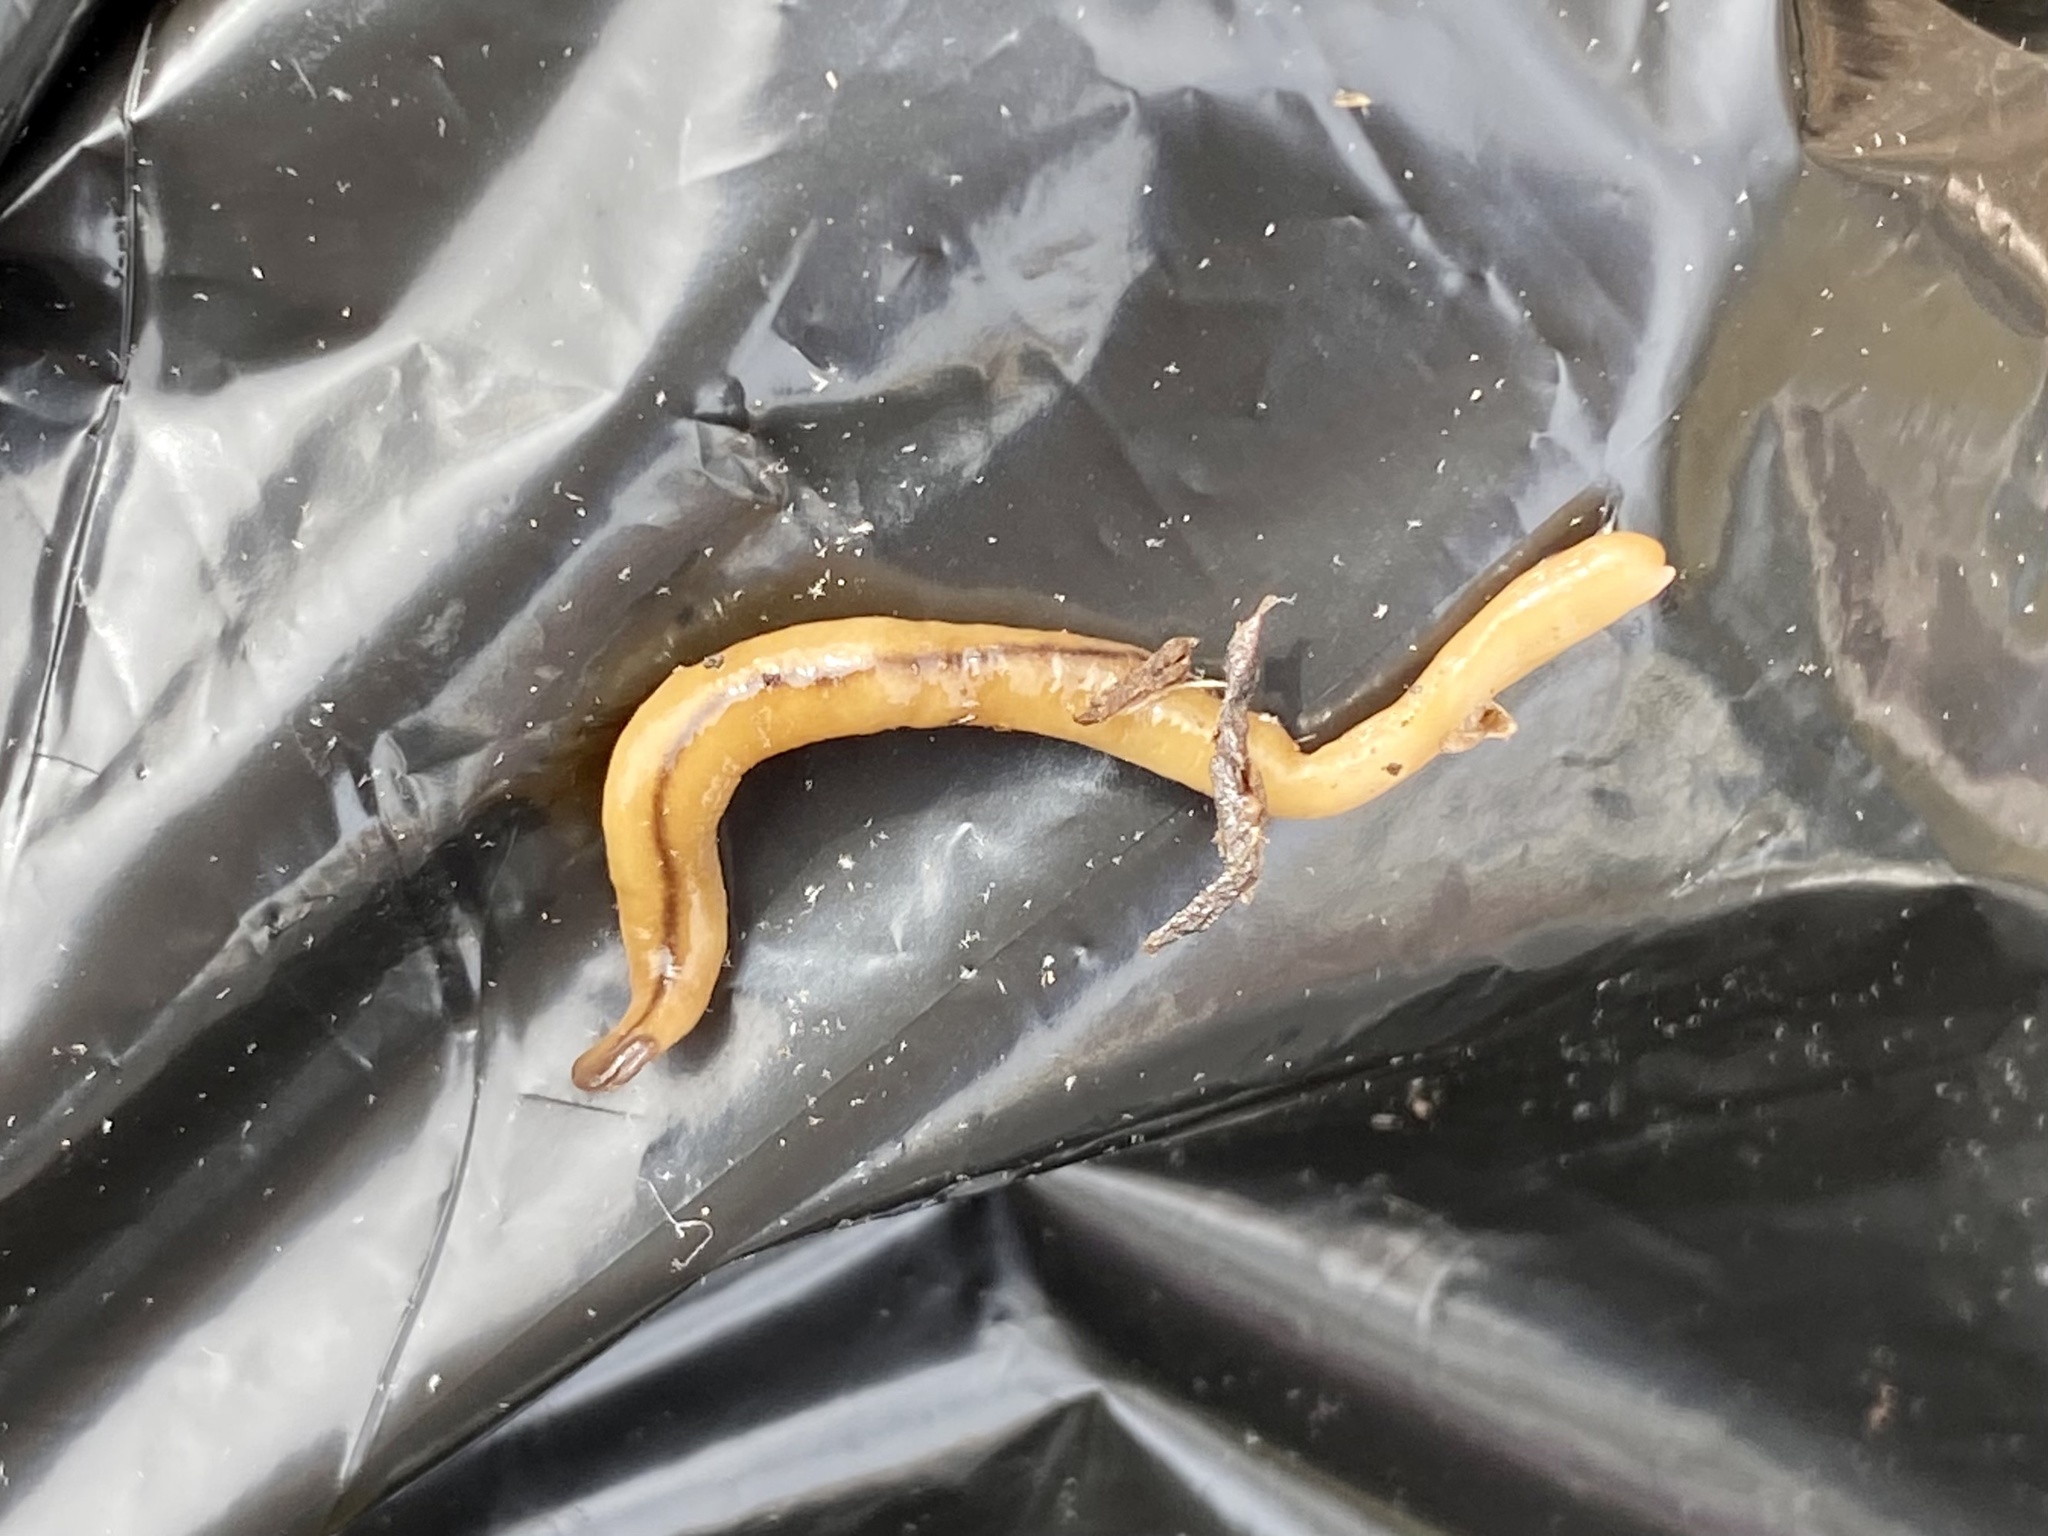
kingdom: Animalia
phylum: Platyhelminthes
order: Tricladida
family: Geoplanidae
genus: Bipalium
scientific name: Bipalium adventitium
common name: Land planarian
